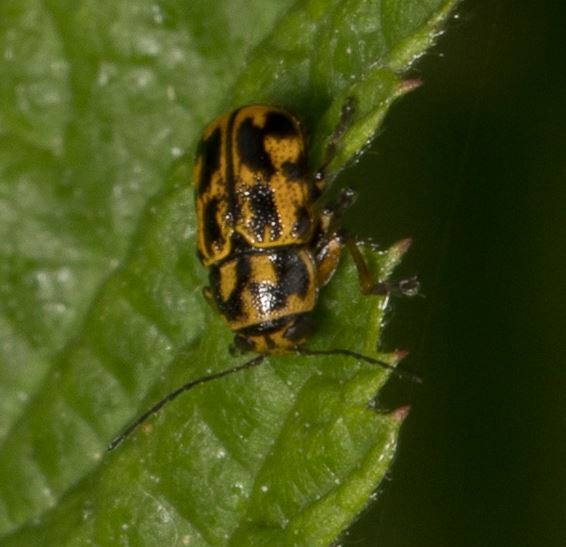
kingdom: Animalia
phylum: Arthropoda
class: Insecta
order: Coleoptera
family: Chrysomelidae
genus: Pachybrachis
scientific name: Pachybrachis hieroglyphicus
